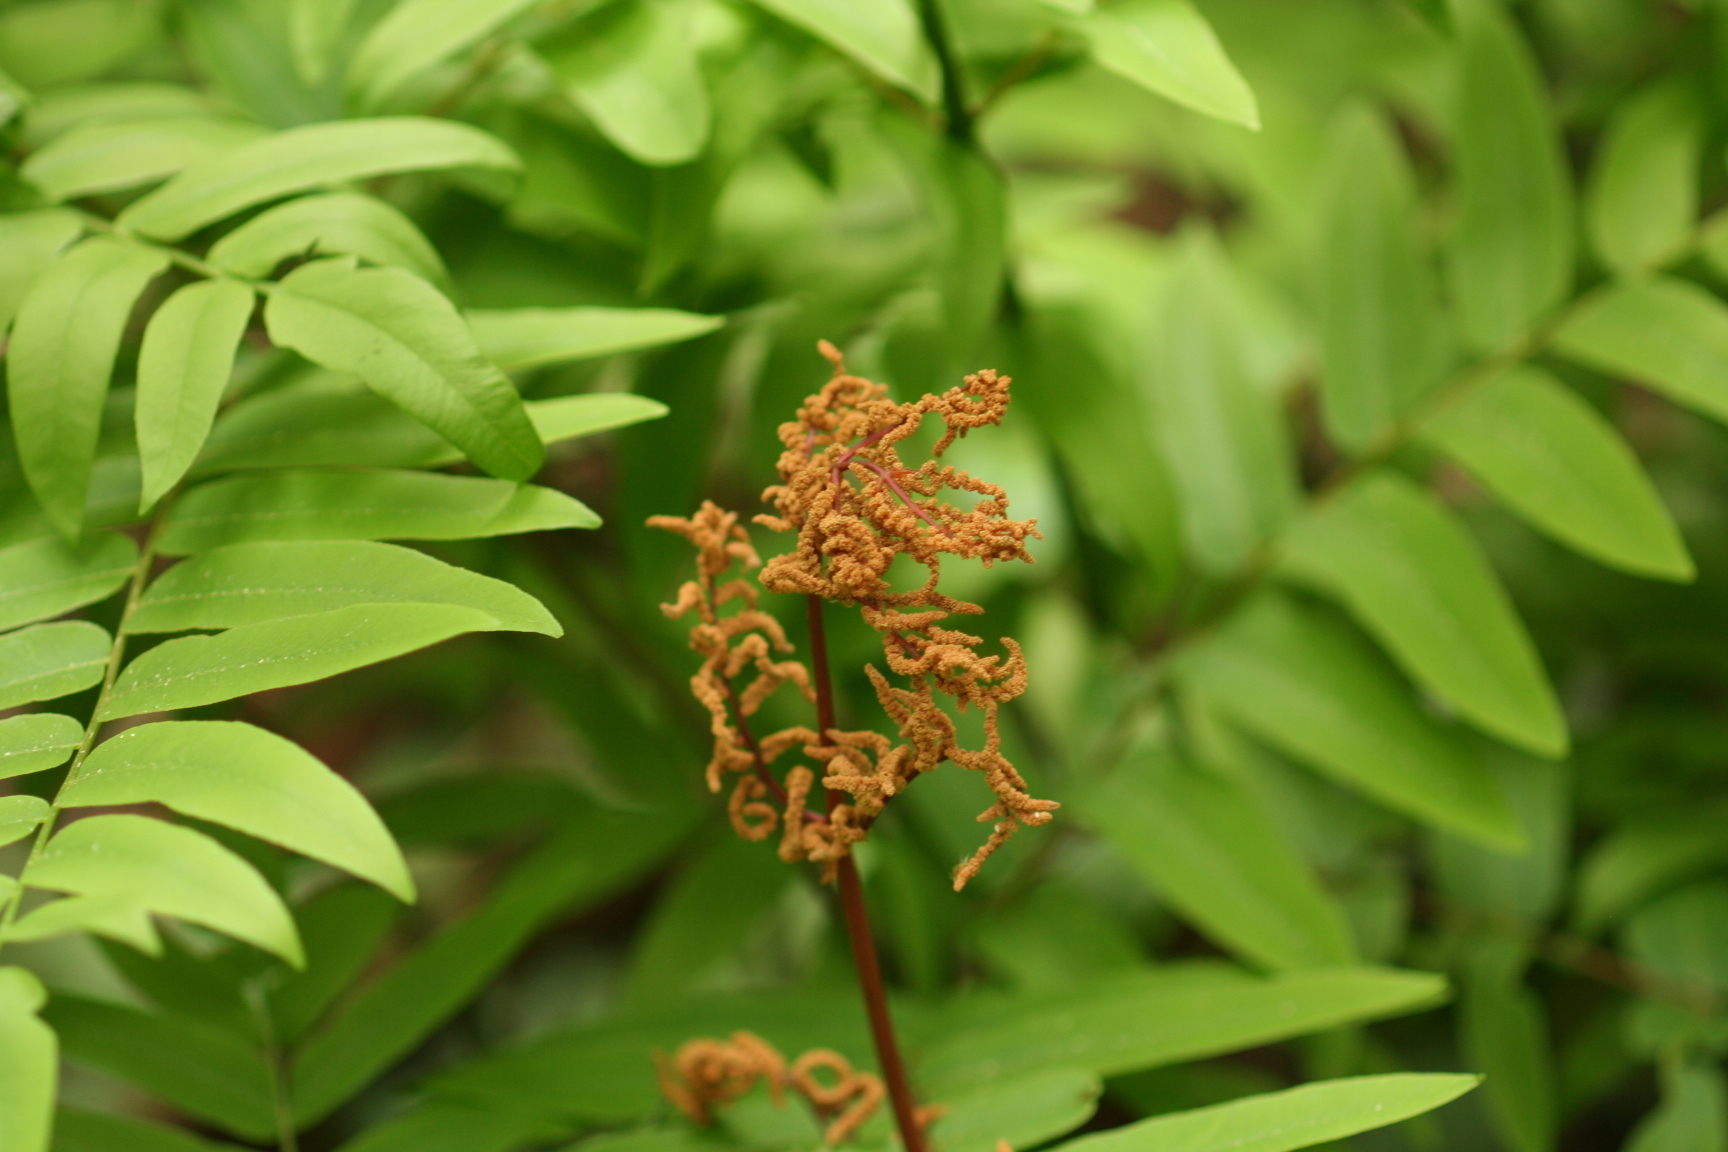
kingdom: Plantae
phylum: Tracheophyta
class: Polypodiopsida
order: Osmundales
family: Osmundaceae
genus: Osmunda
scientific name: Osmunda japonica
